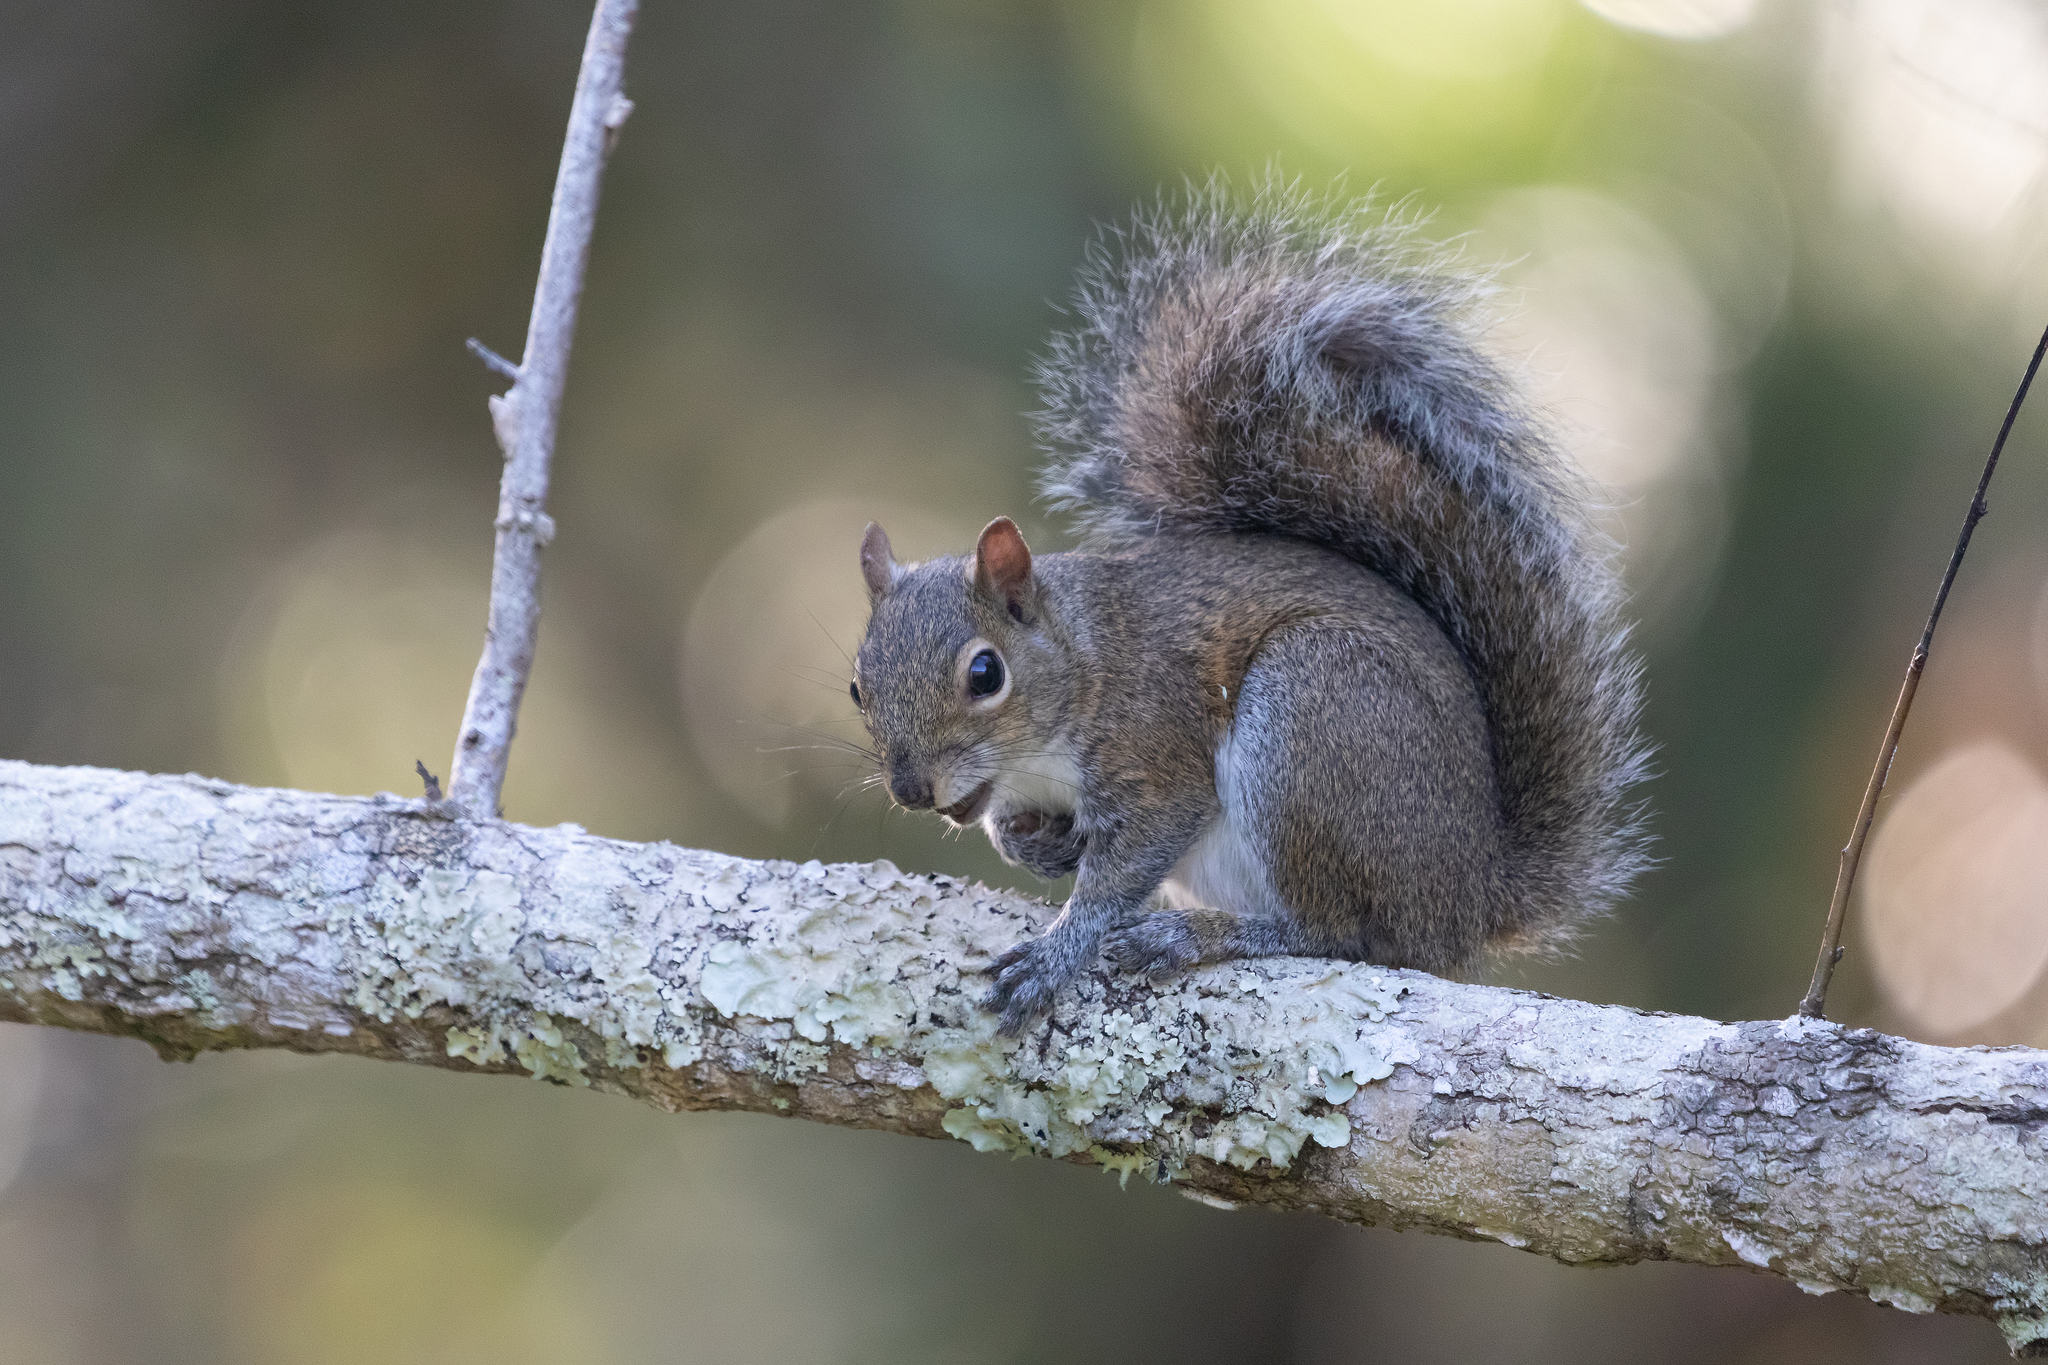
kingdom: Animalia
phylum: Chordata
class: Mammalia
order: Rodentia
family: Sciuridae
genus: Sciurus
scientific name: Sciurus carolinensis
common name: Eastern gray squirrel
